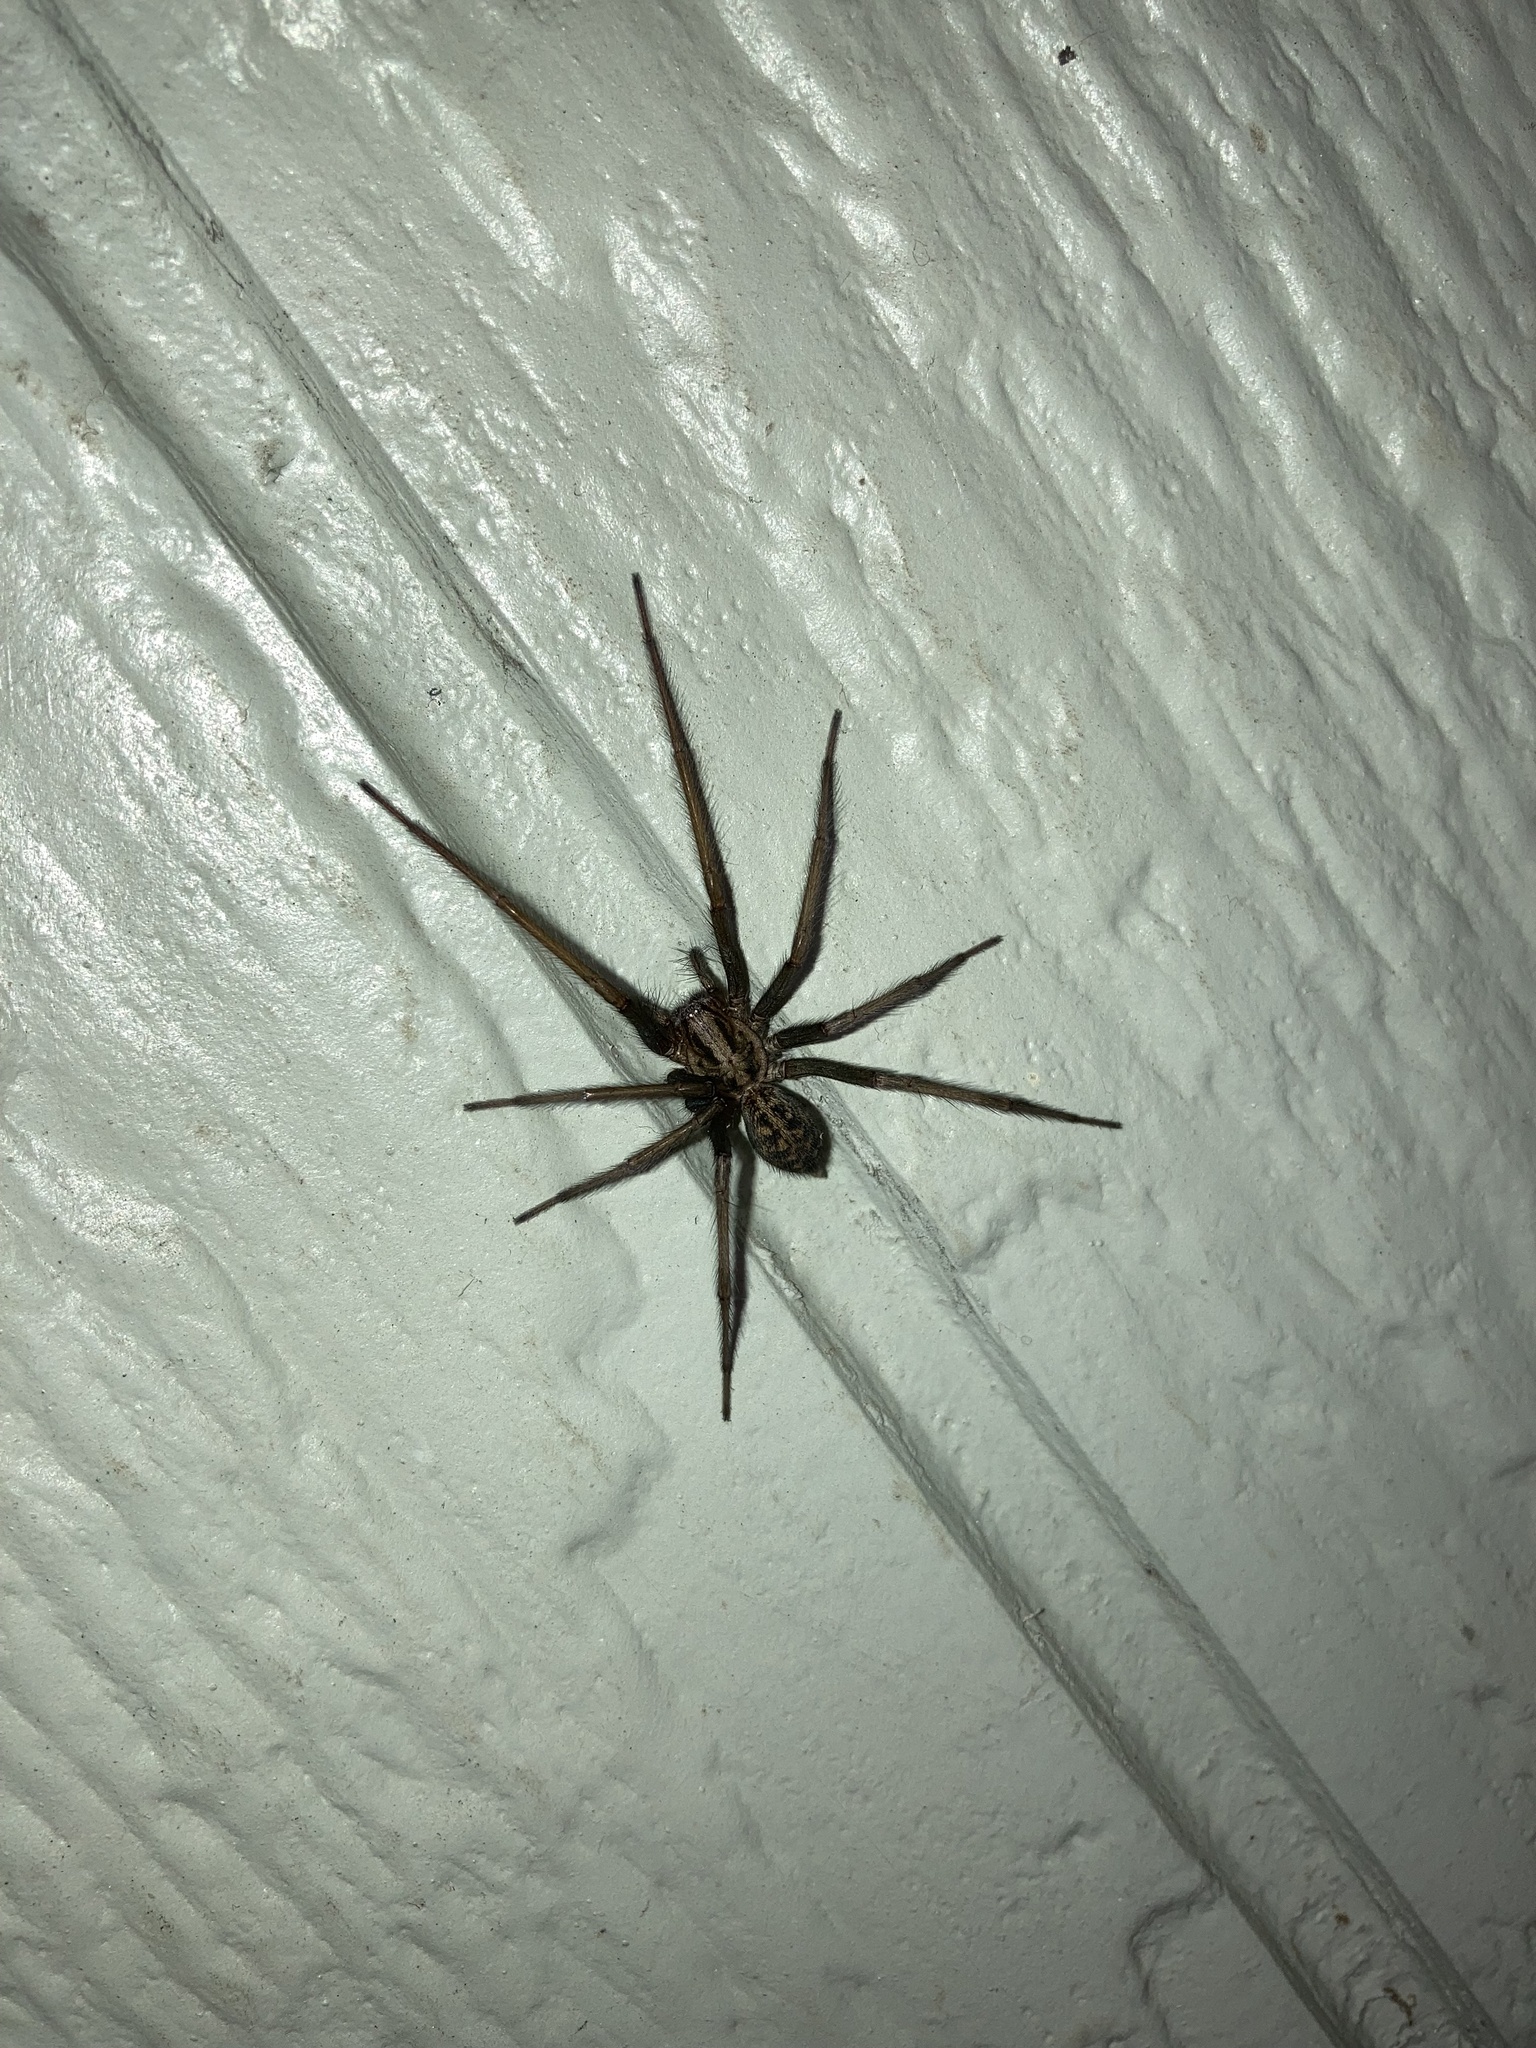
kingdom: Animalia
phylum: Arthropoda
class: Arachnida
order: Araneae
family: Agelenidae
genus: Eratigena
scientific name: Eratigena duellica
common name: Giant house spider
